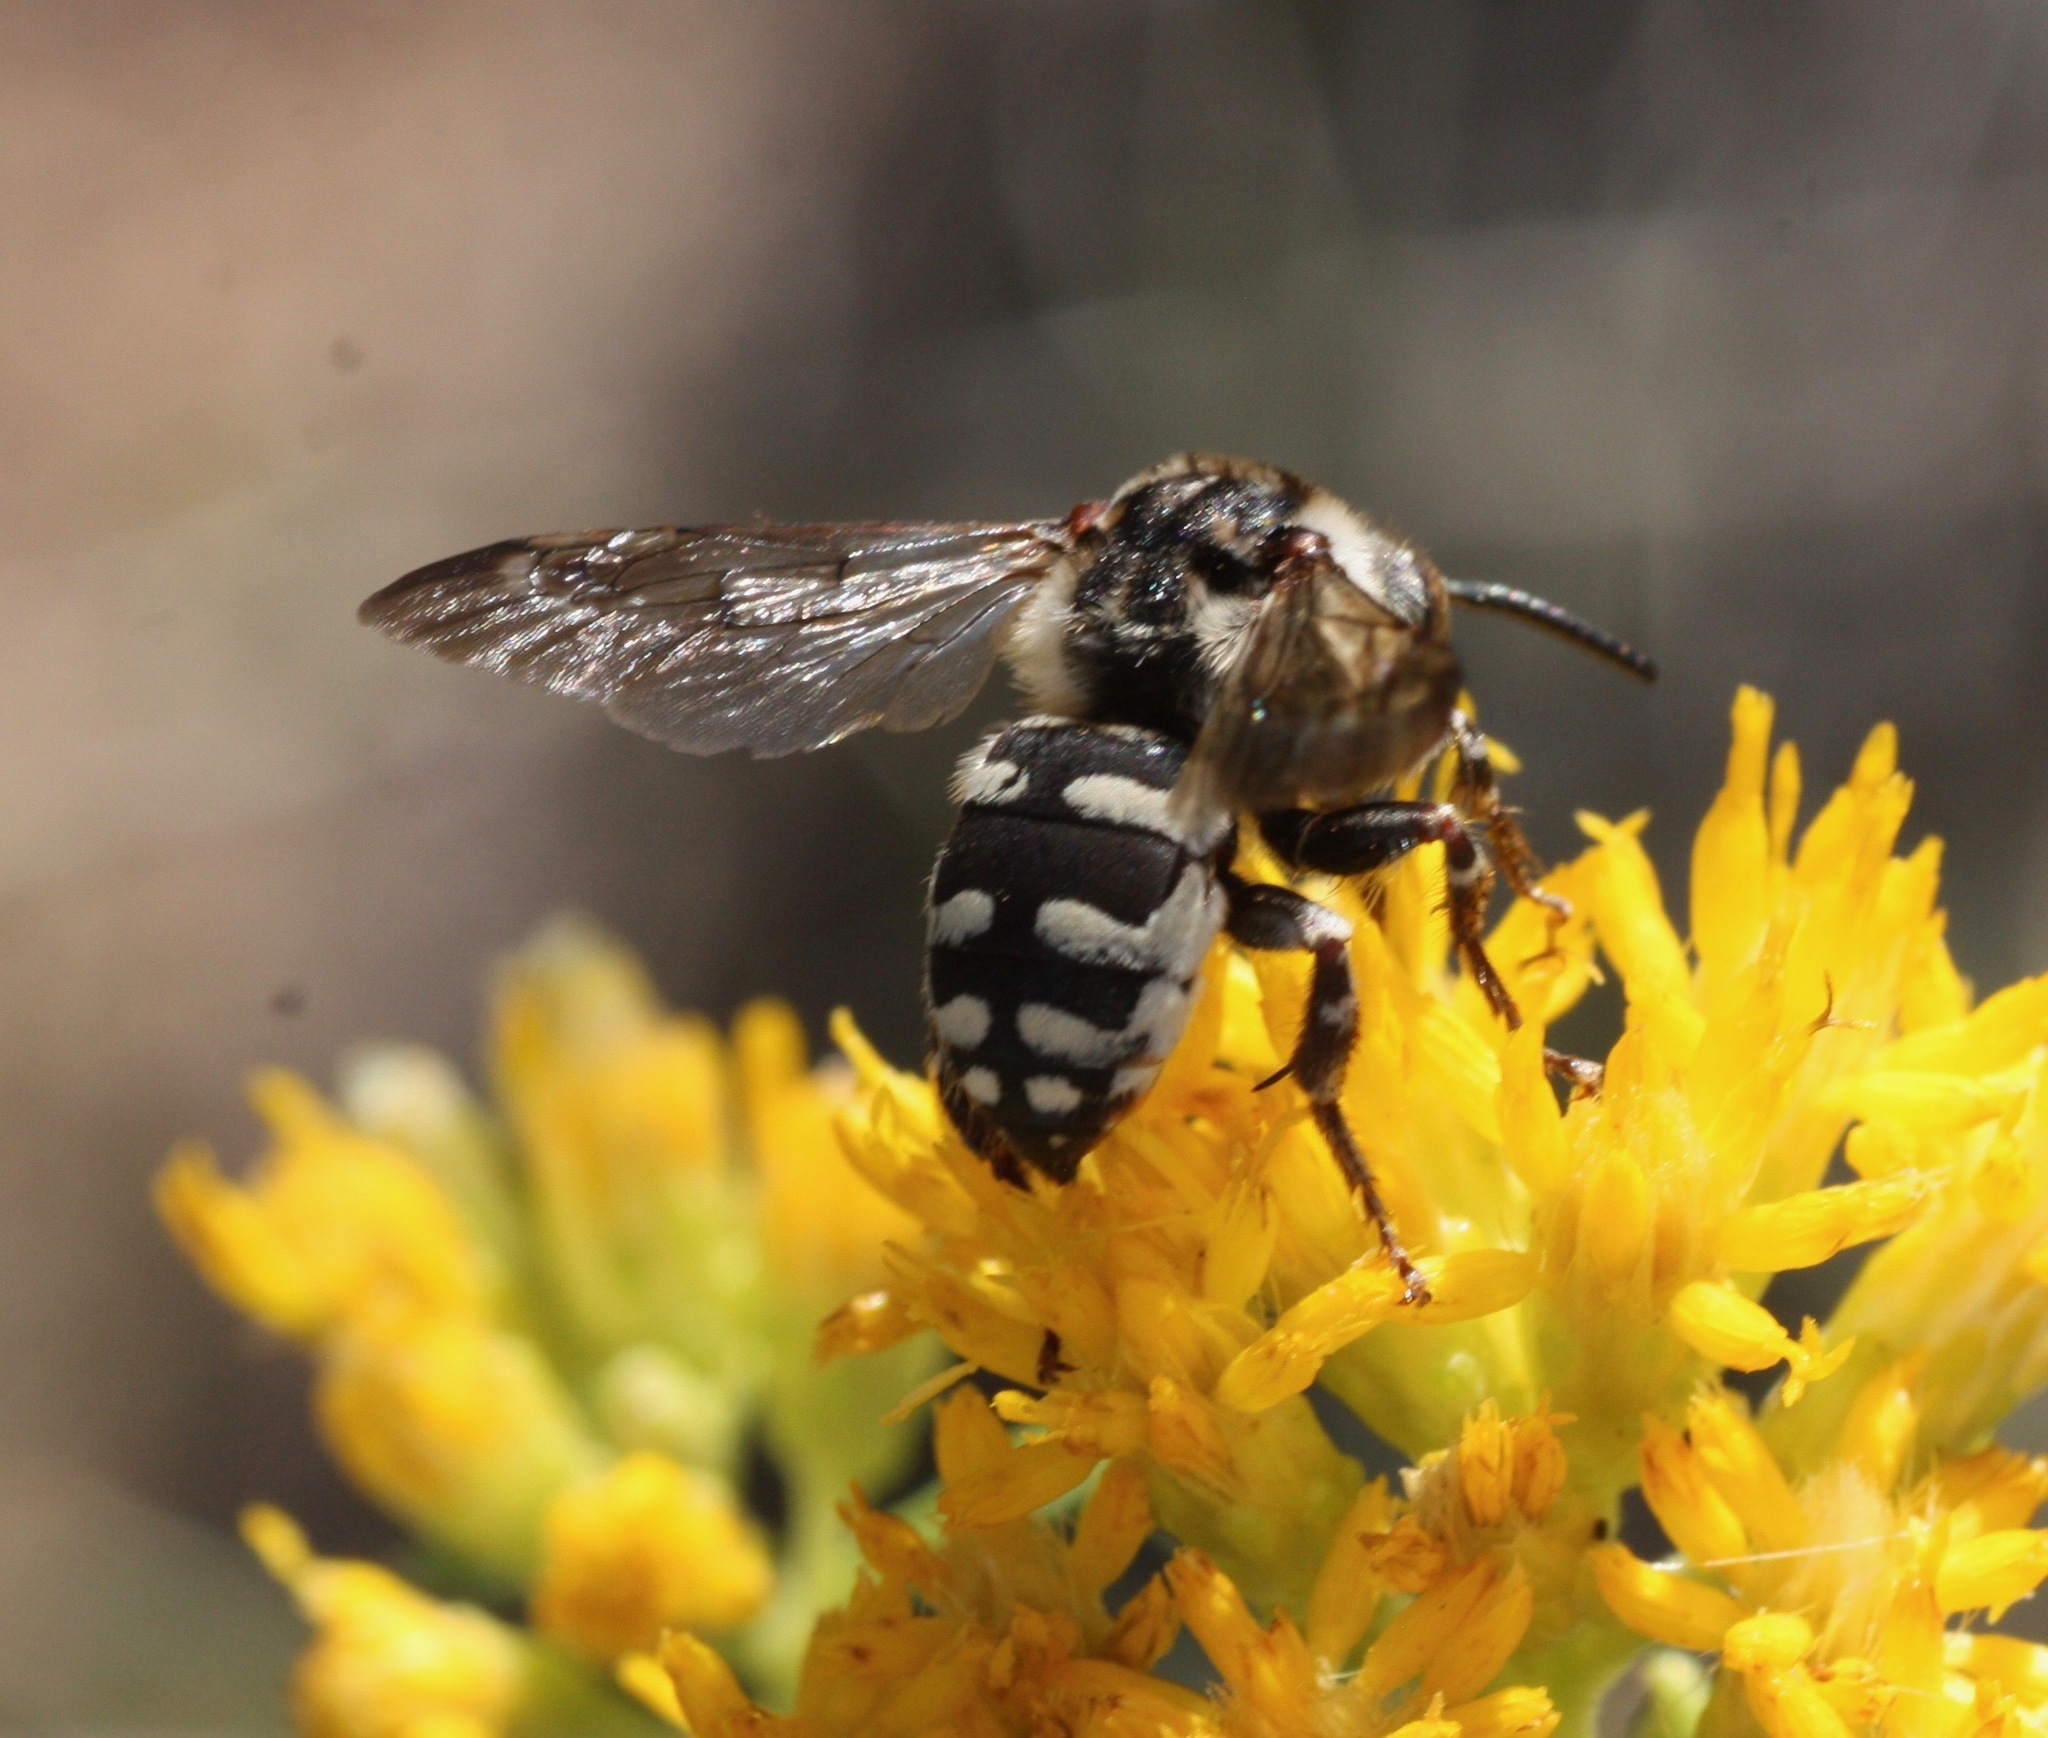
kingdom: Animalia
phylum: Arthropoda
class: Insecta
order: Hymenoptera
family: Apidae
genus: Brachymelecta
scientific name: Brachymelecta californica
